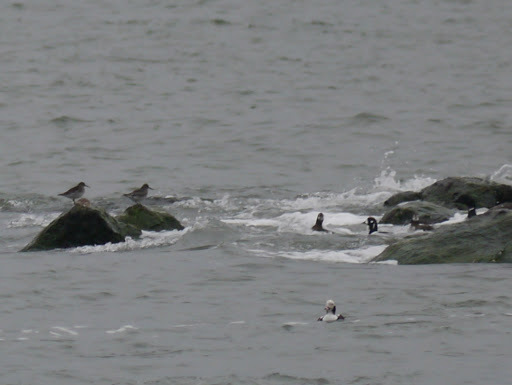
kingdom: Animalia
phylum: Chordata
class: Aves
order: Anseriformes
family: Anatidae
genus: Clangula
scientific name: Clangula hyemalis
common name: Long-tailed duck
